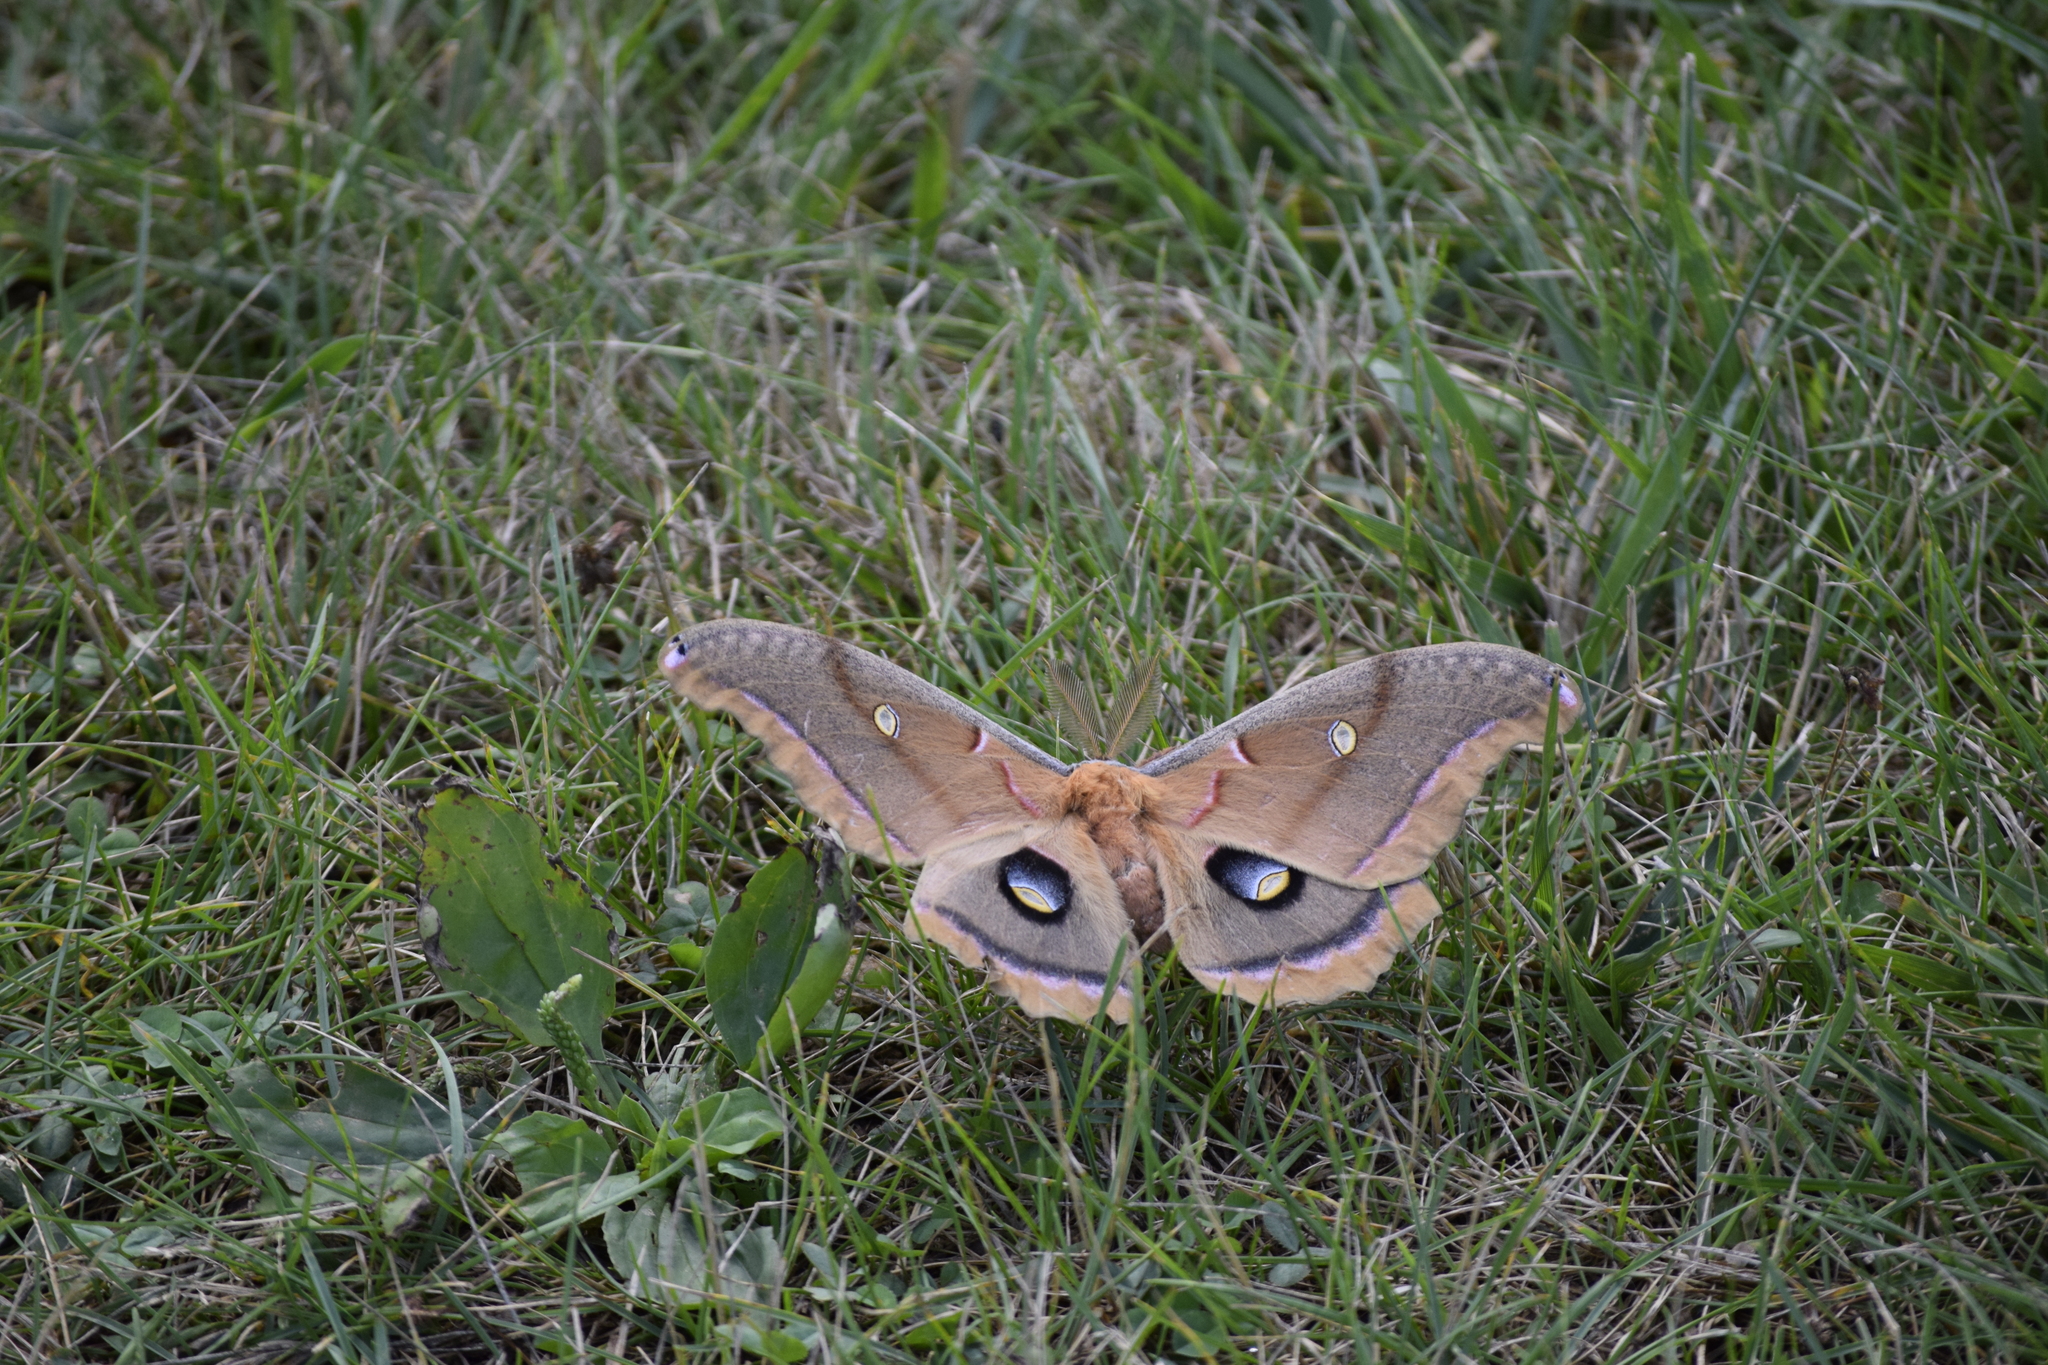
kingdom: Animalia
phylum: Arthropoda
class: Insecta
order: Lepidoptera
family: Saturniidae
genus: Antheraea
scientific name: Antheraea polyphemus
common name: Polyphemus moth
